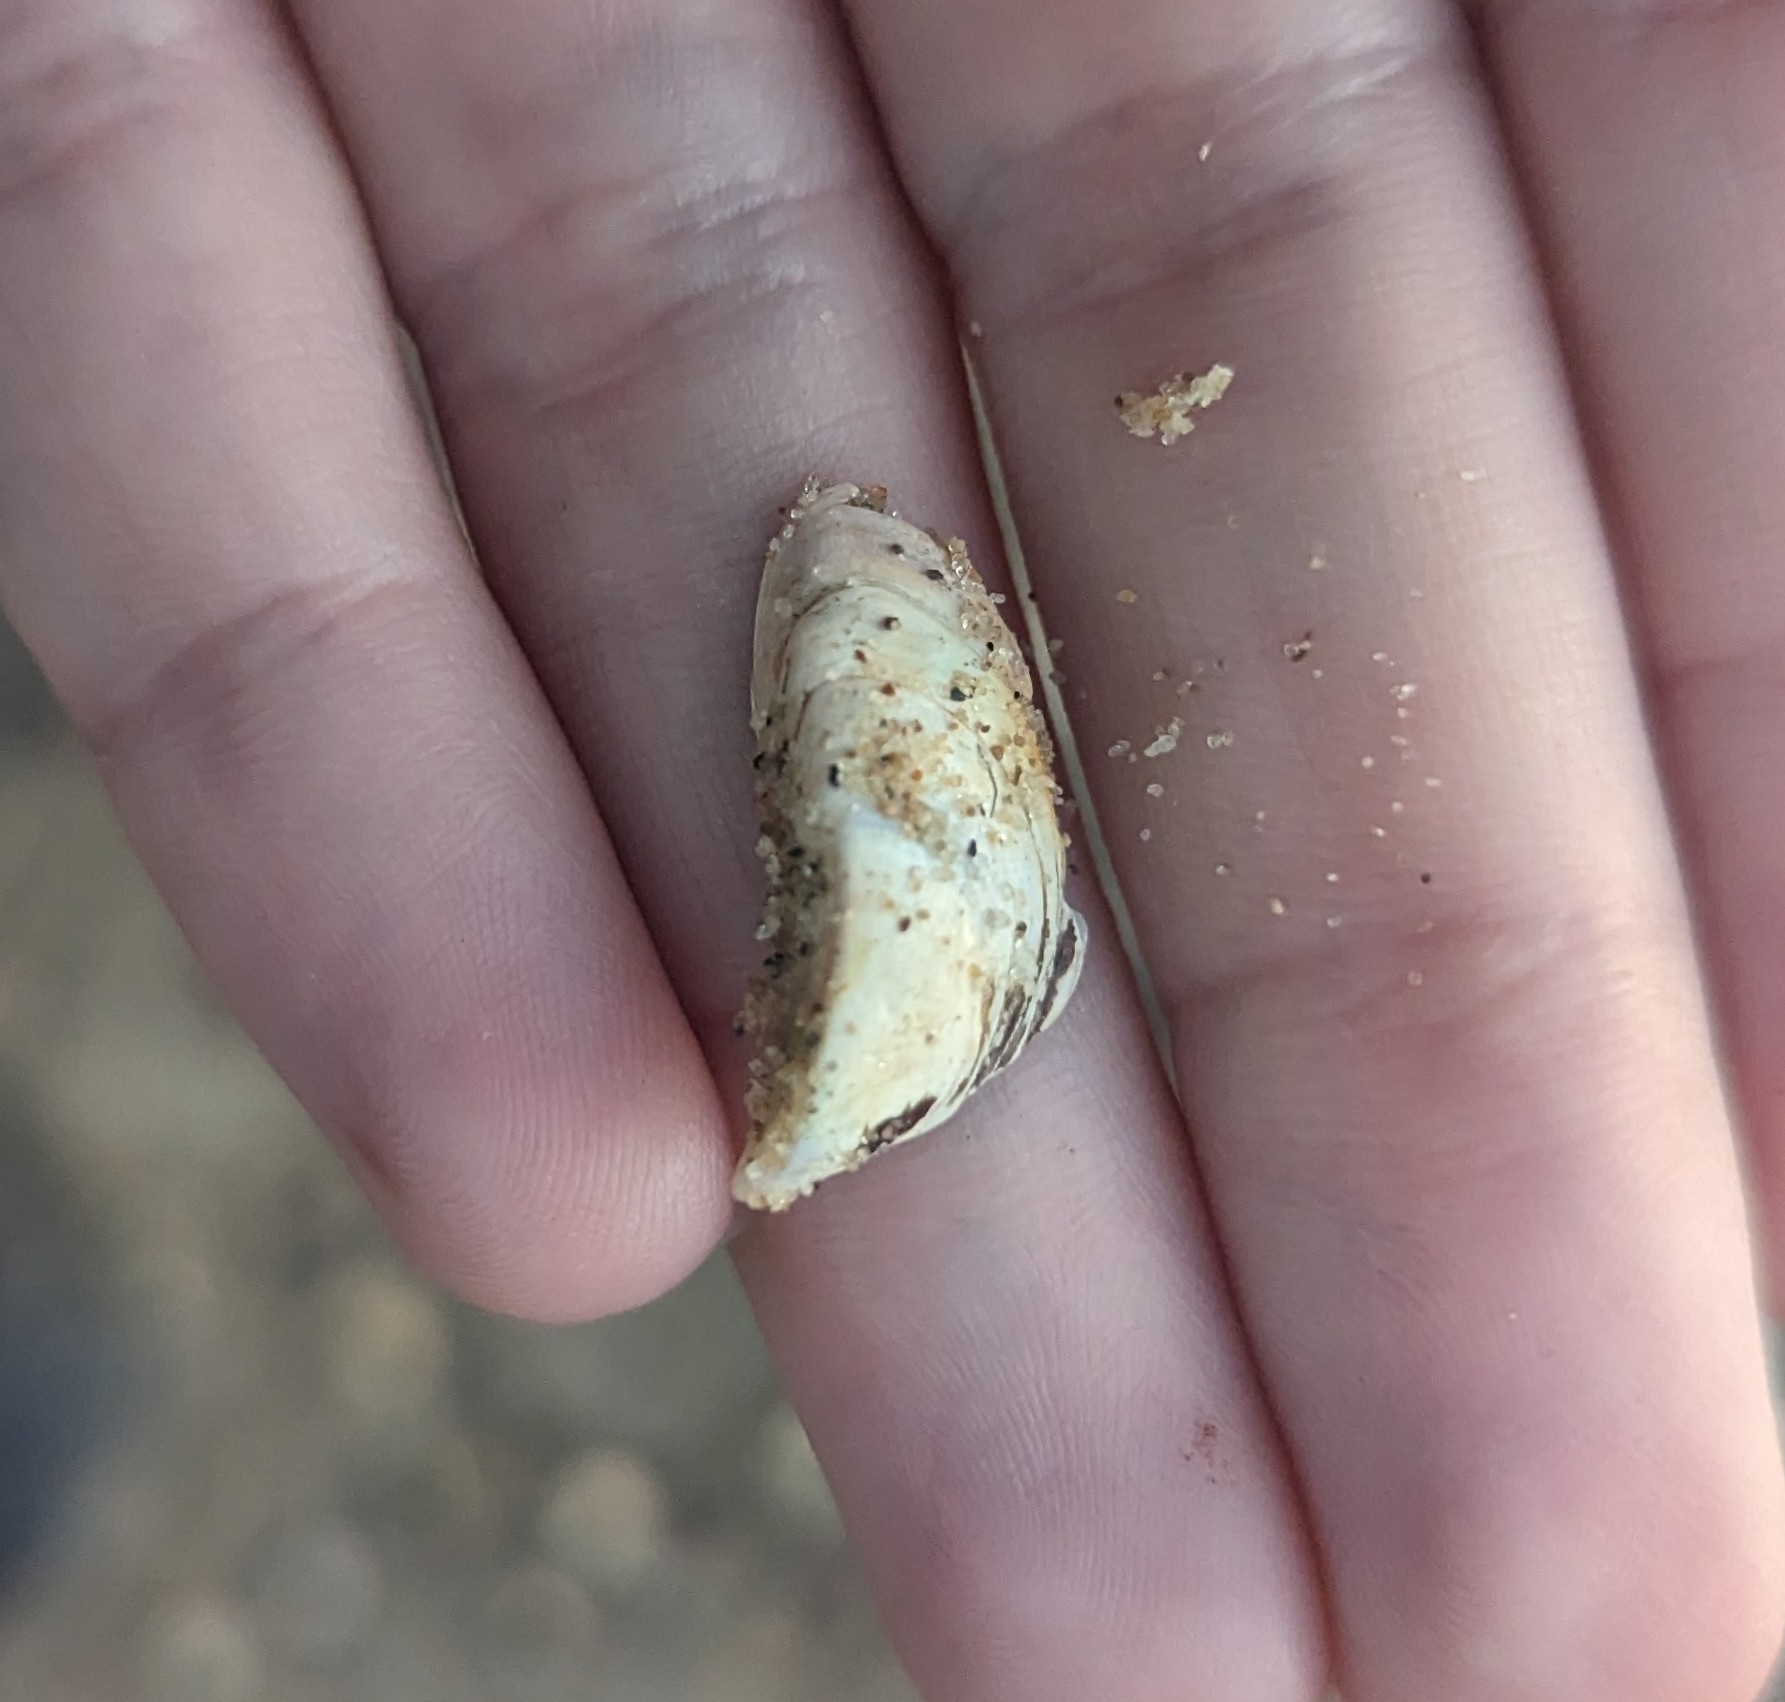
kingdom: Animalia
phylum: Mollusca
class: Bivalvia
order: Myida
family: Dreissenidae
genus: Dreissena
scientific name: Dreissena polymorpha
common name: Zebra mussel
